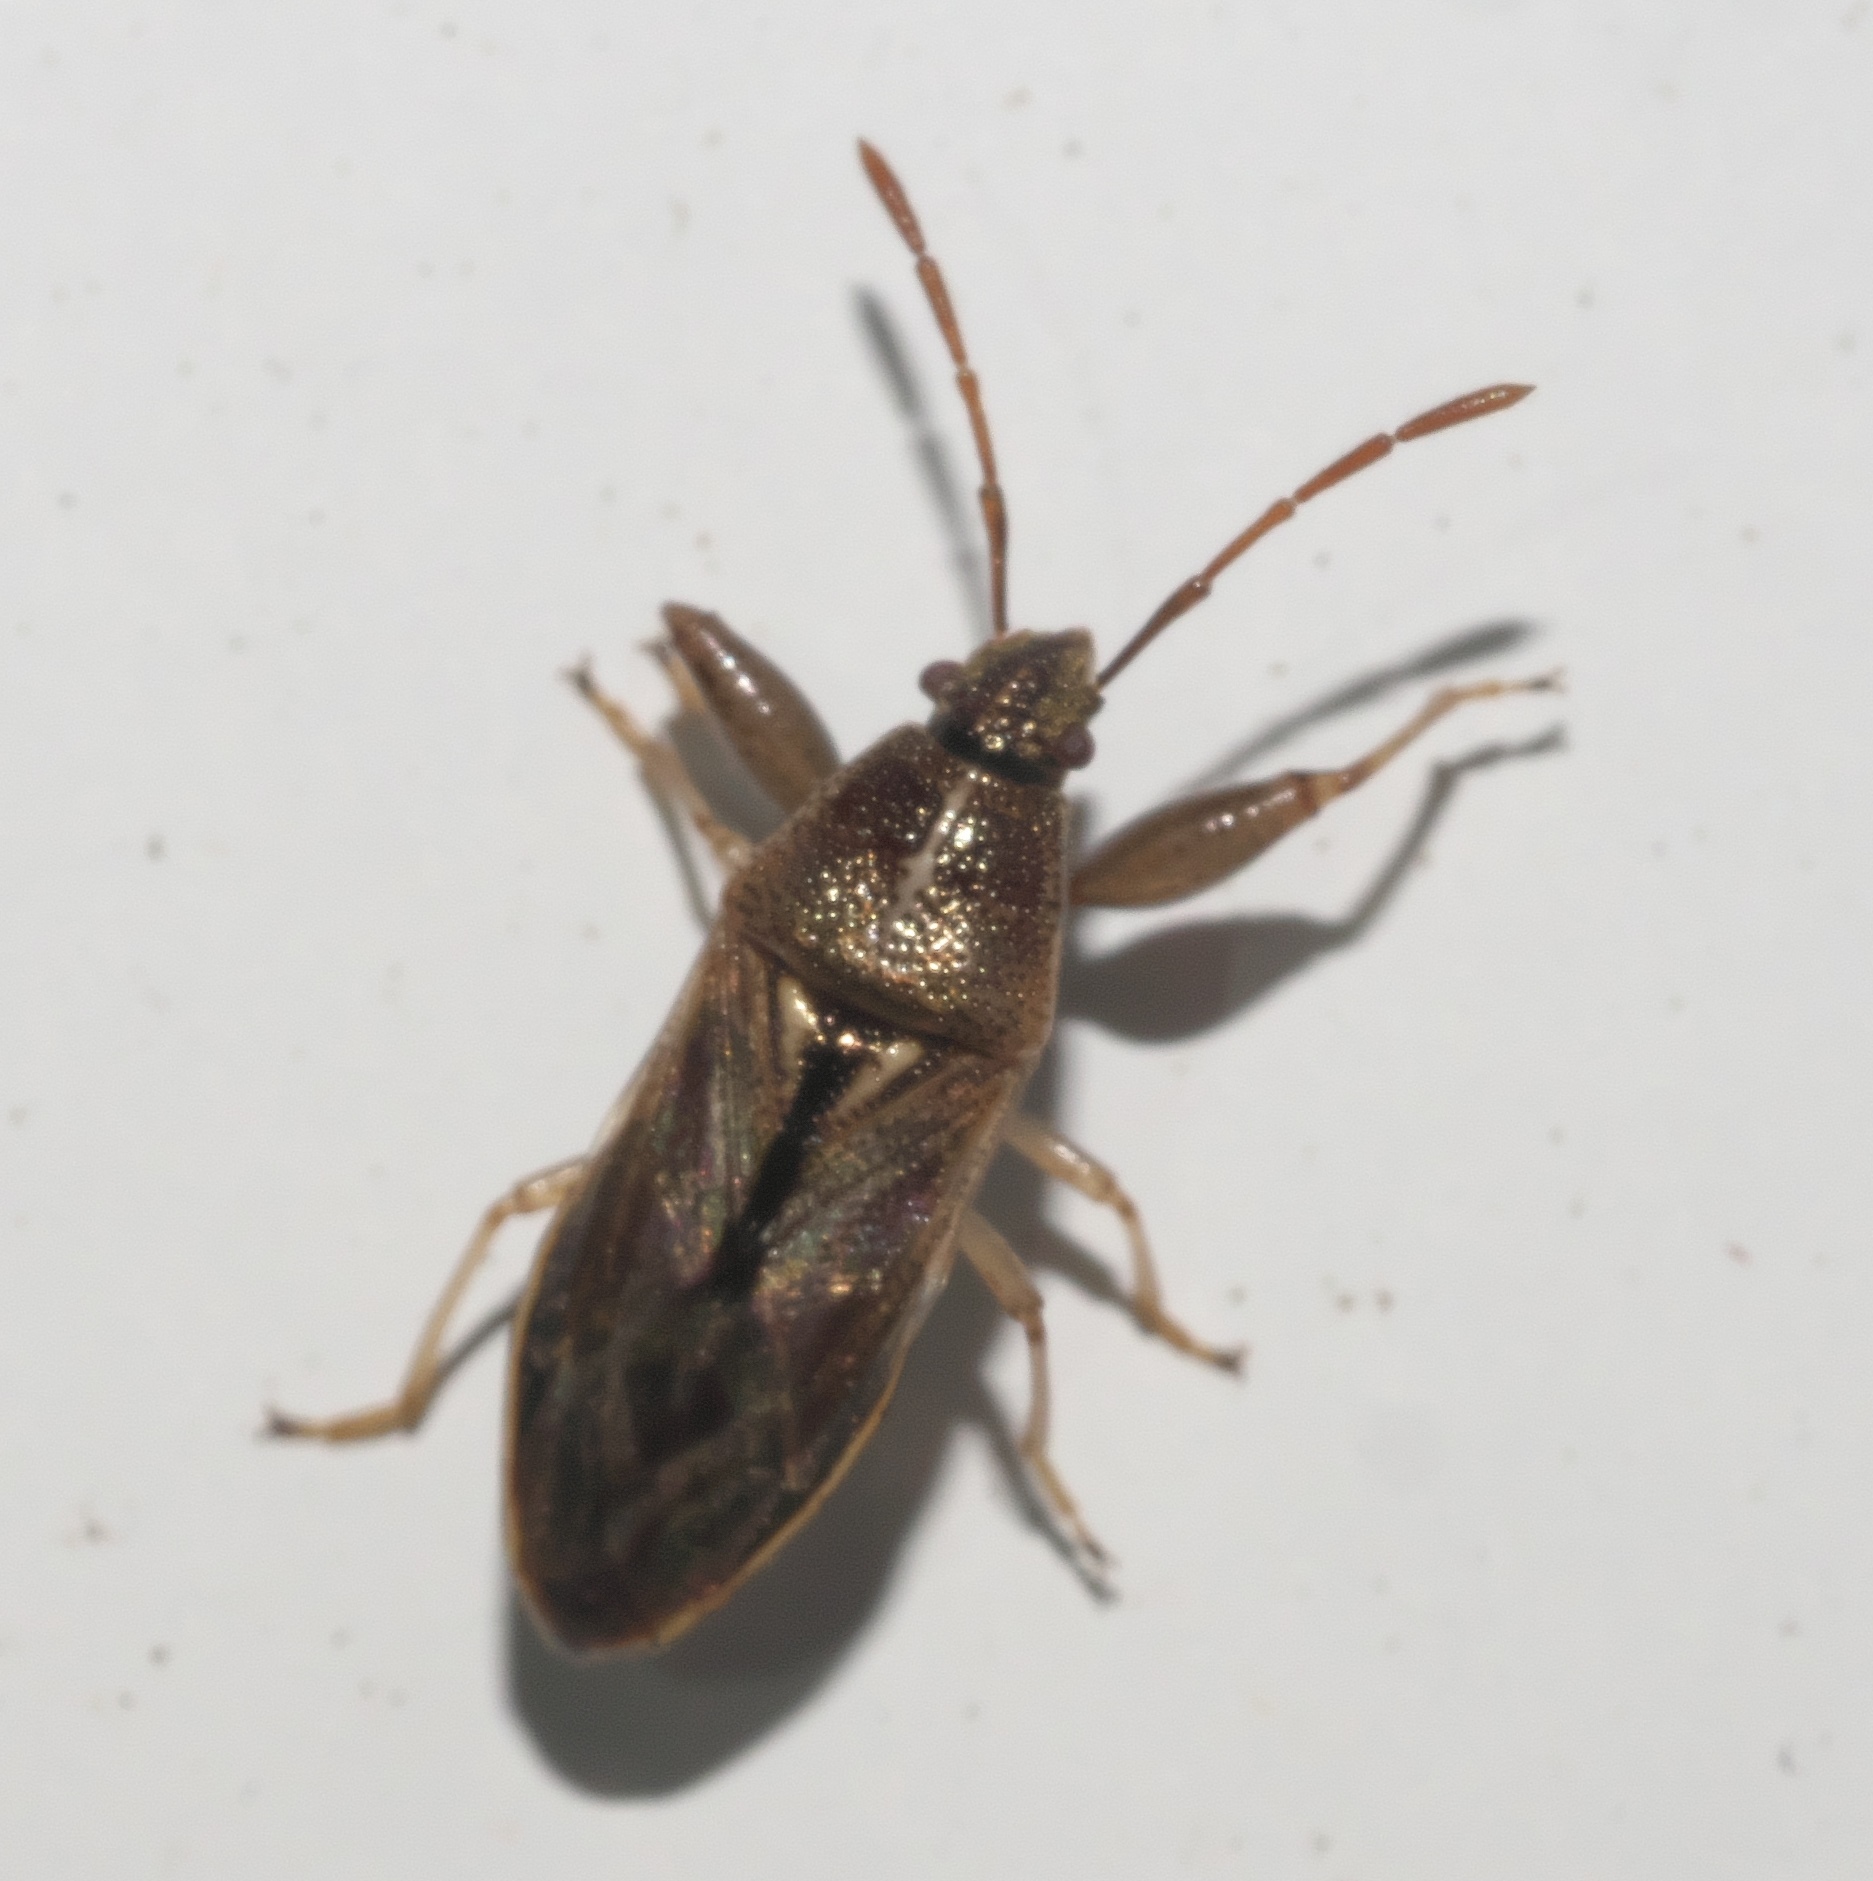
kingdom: Animalia
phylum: Arthropoda
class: Insecta
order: Hemiptera
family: Pachygronthidae
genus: Oedancala
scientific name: Oedancala dorsalis
